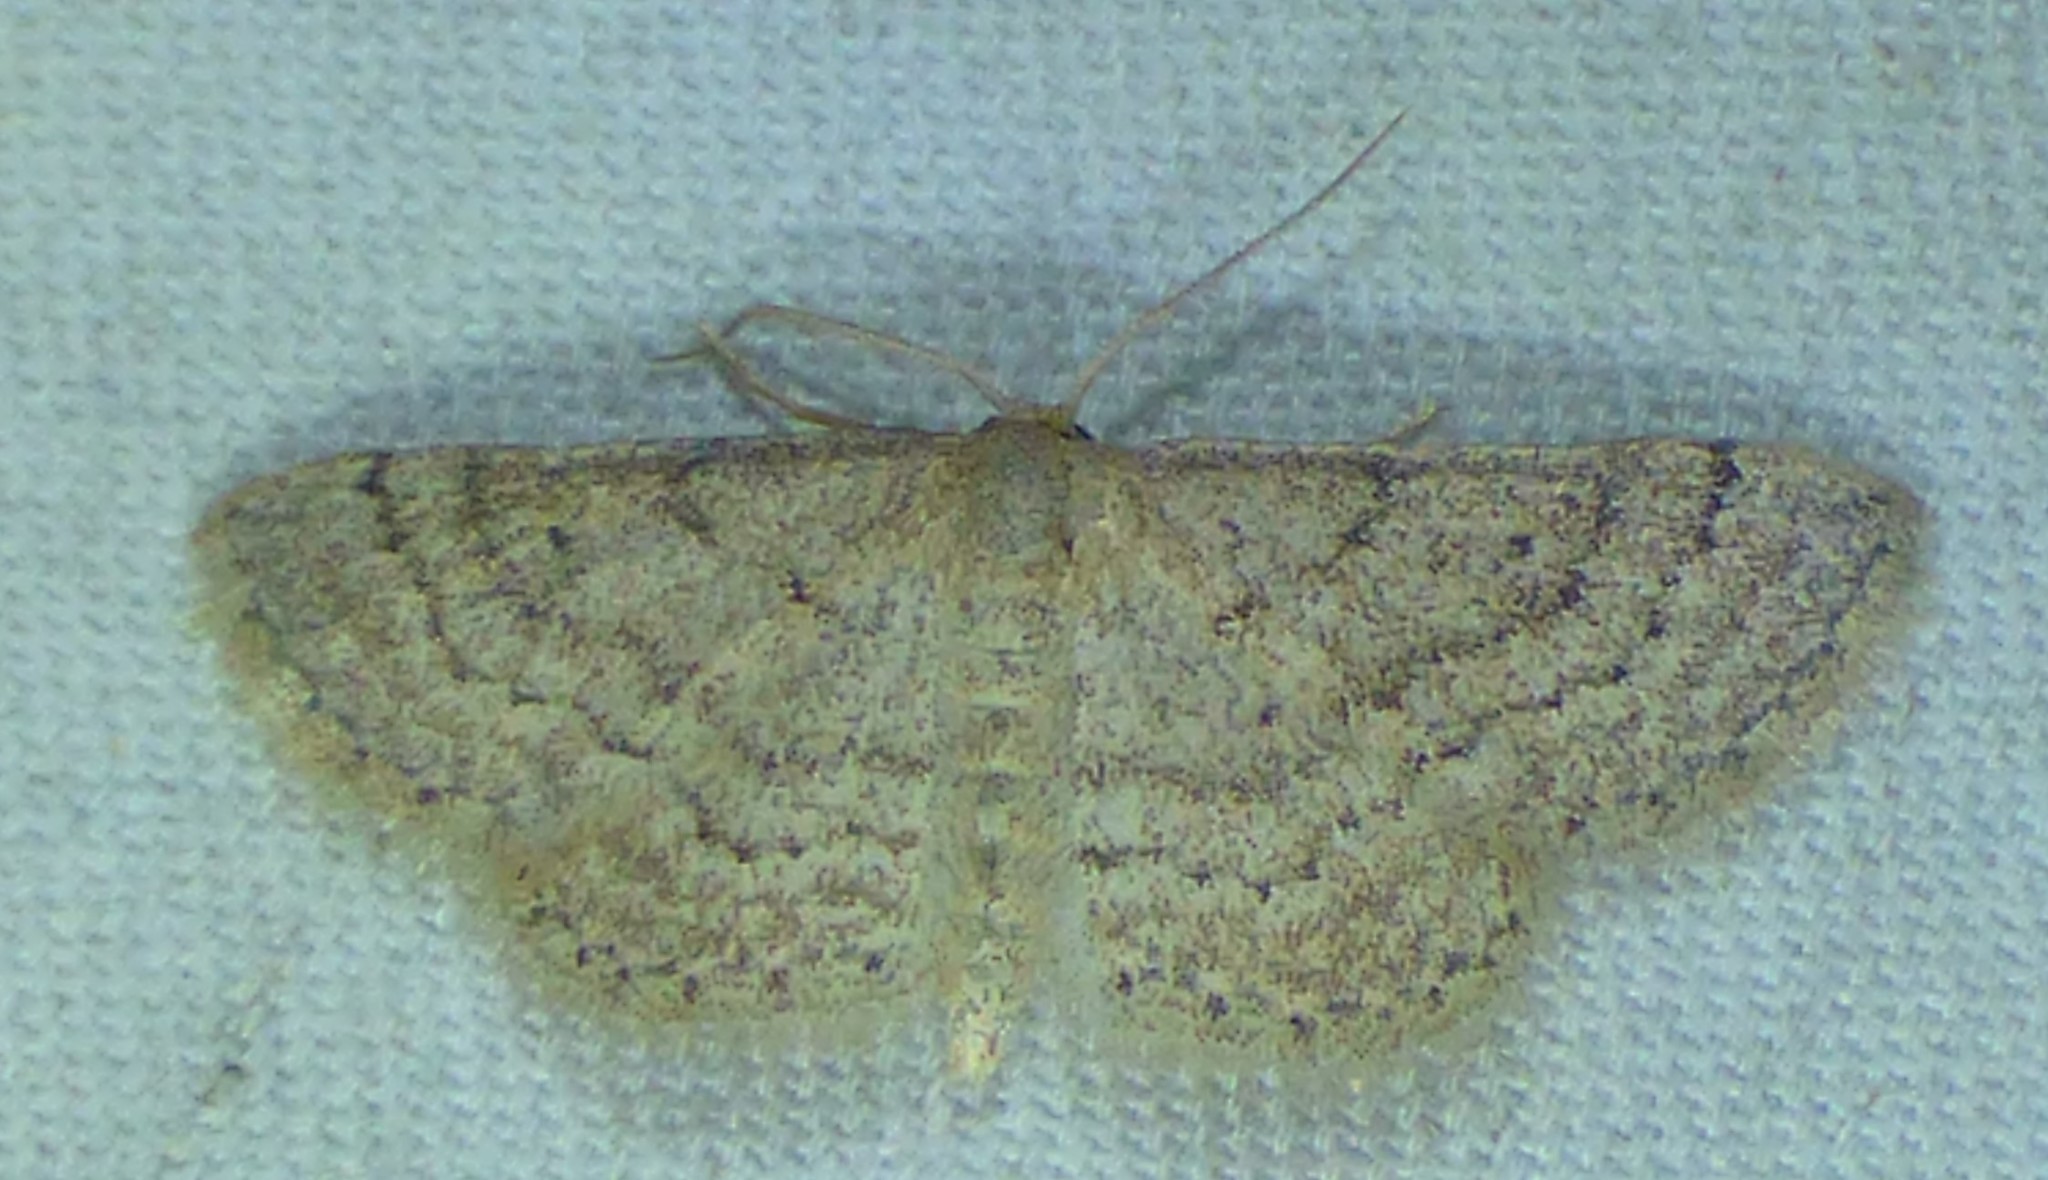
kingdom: Animalia
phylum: Arthropoda
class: Insecta
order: Lepidoptera
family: Geometridae
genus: Lobocleta
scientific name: Lobocleta ossularia
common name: Drab brown wave
